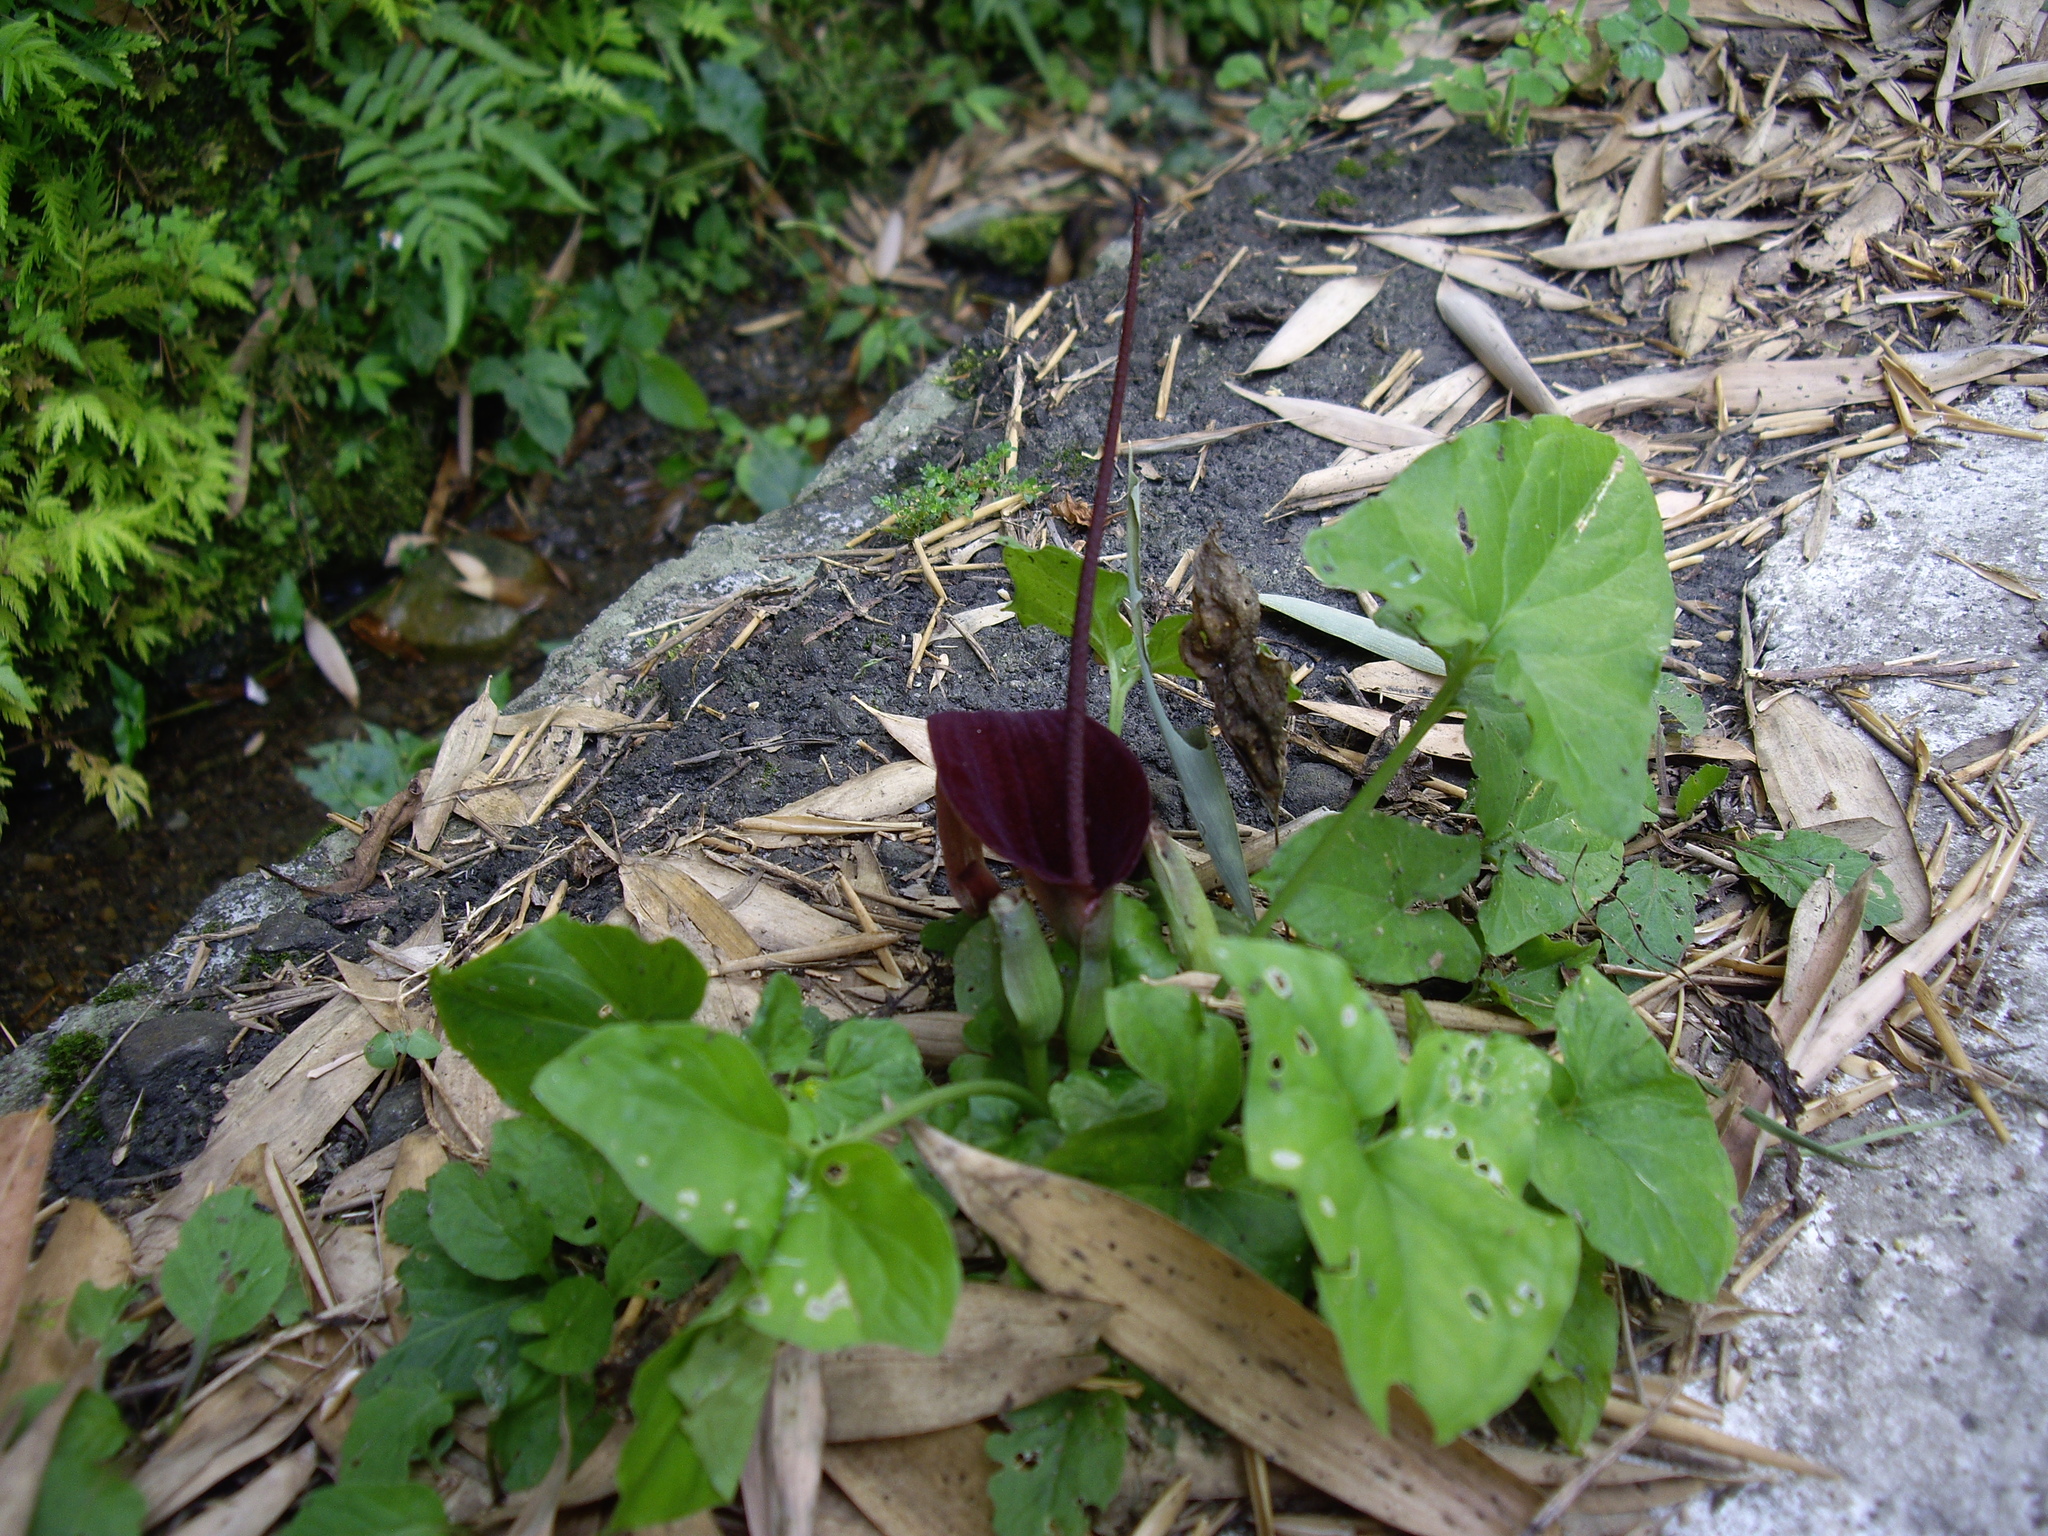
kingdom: Plantae
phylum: Tracheophyta
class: Liliopsida
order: Alismatales
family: Araceae
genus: Typhonium
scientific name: Typhonium blumei
